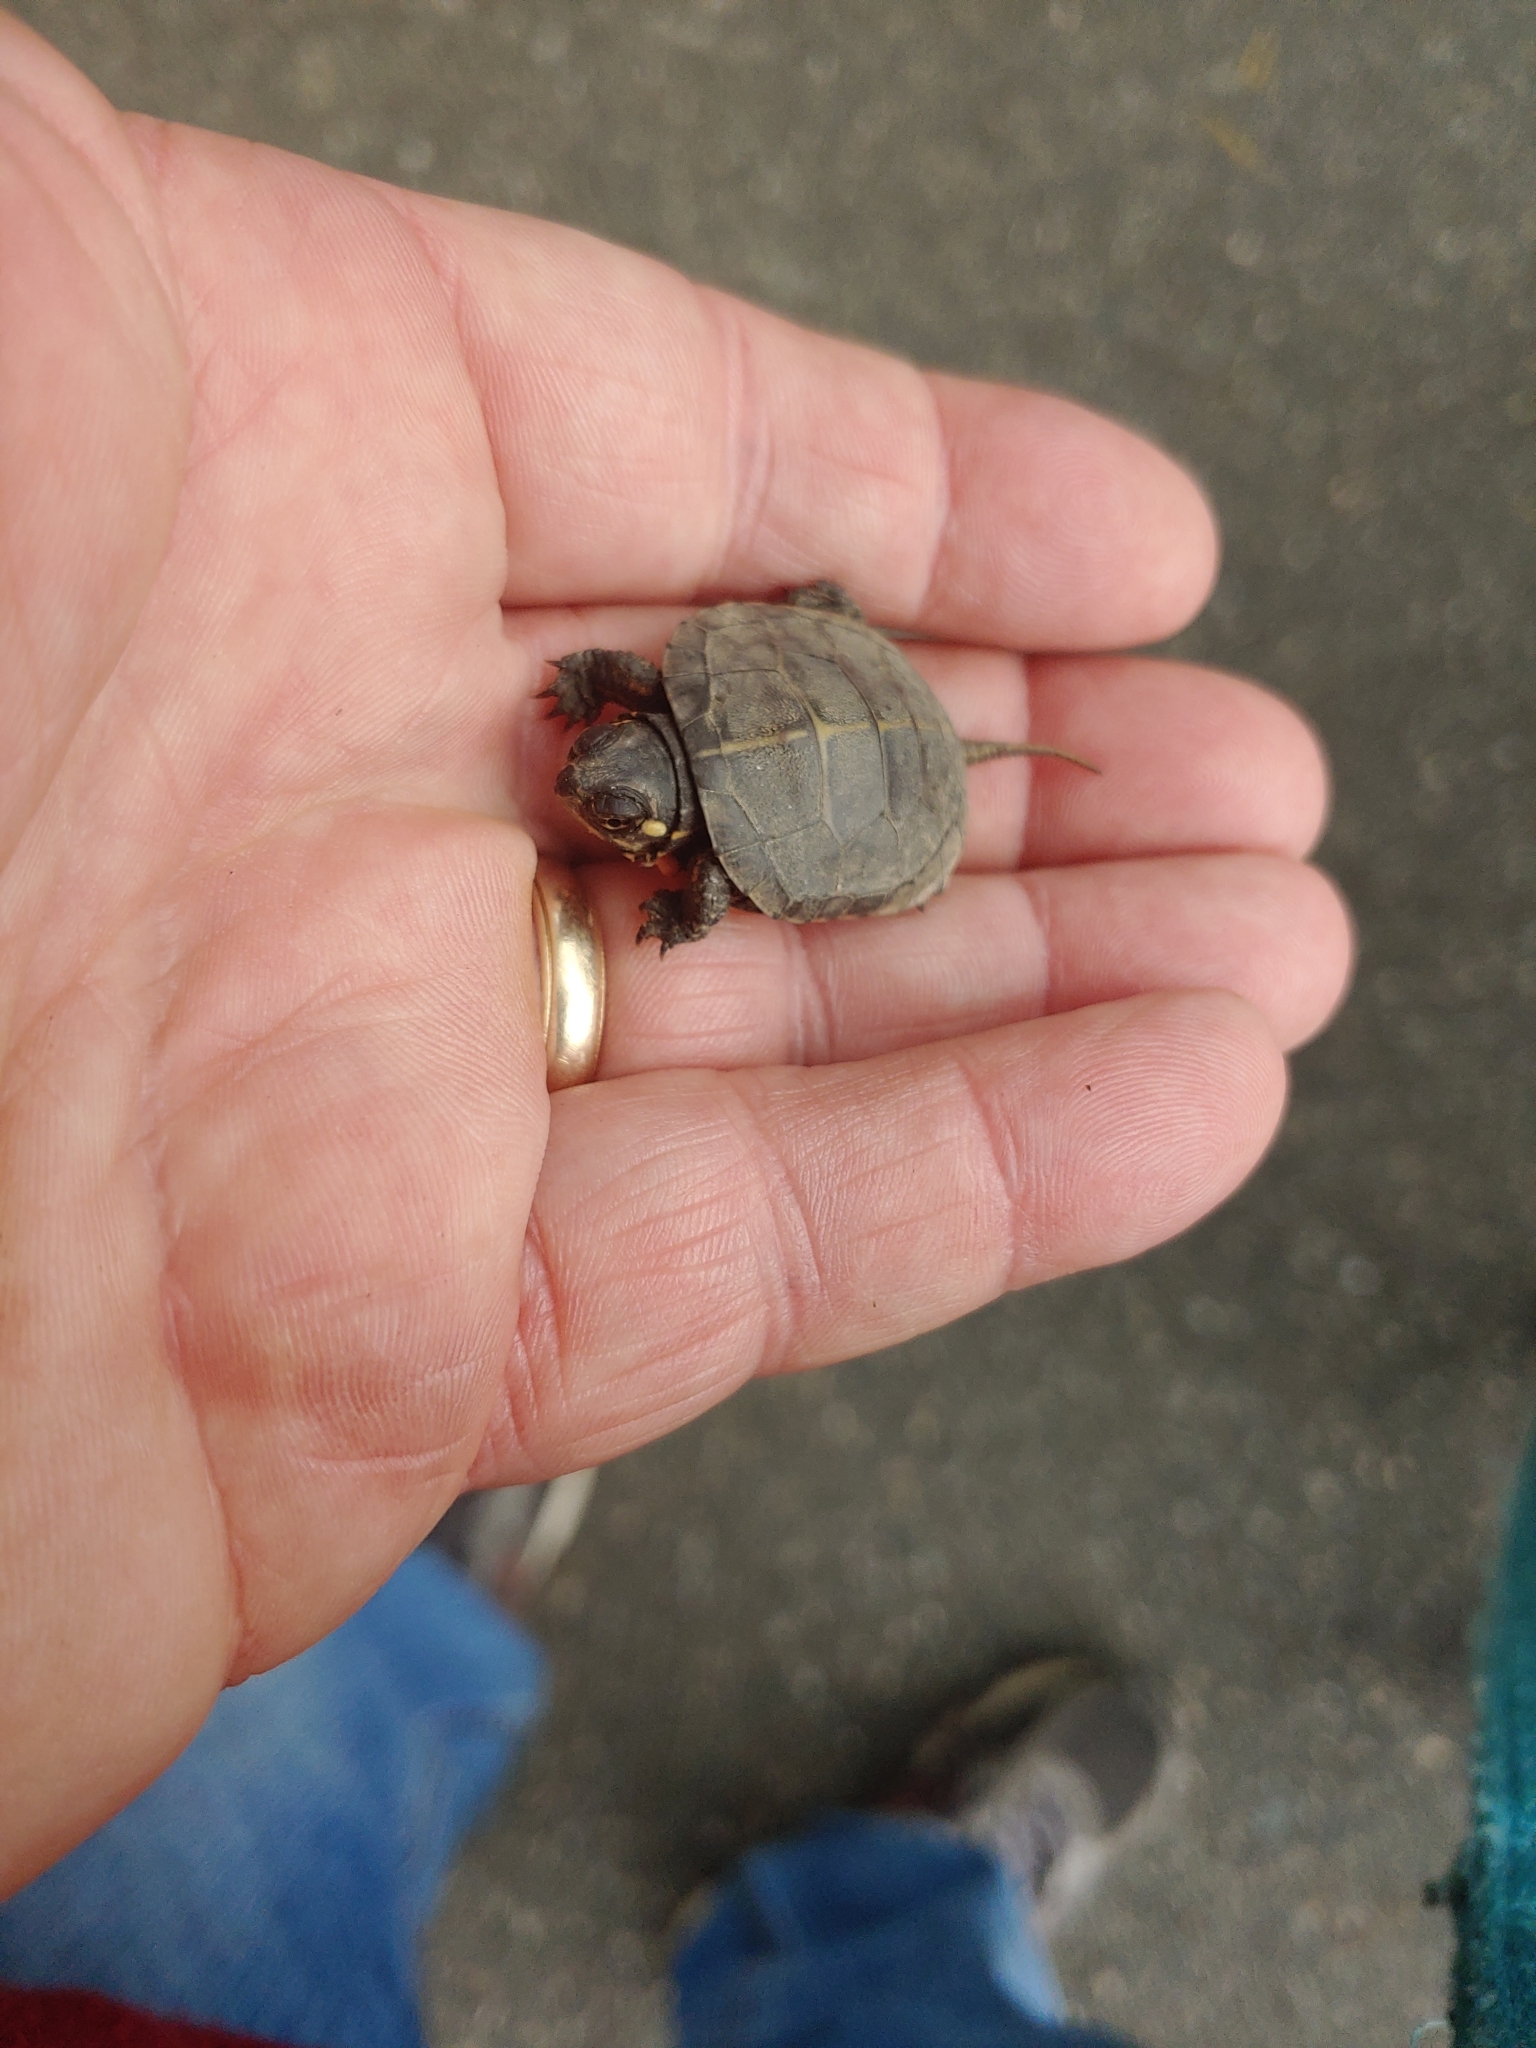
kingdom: Animalia
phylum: Chordata
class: Testudines
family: Emydidae
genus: Chrysemys
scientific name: Chrysemys picta
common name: Painted turtle
